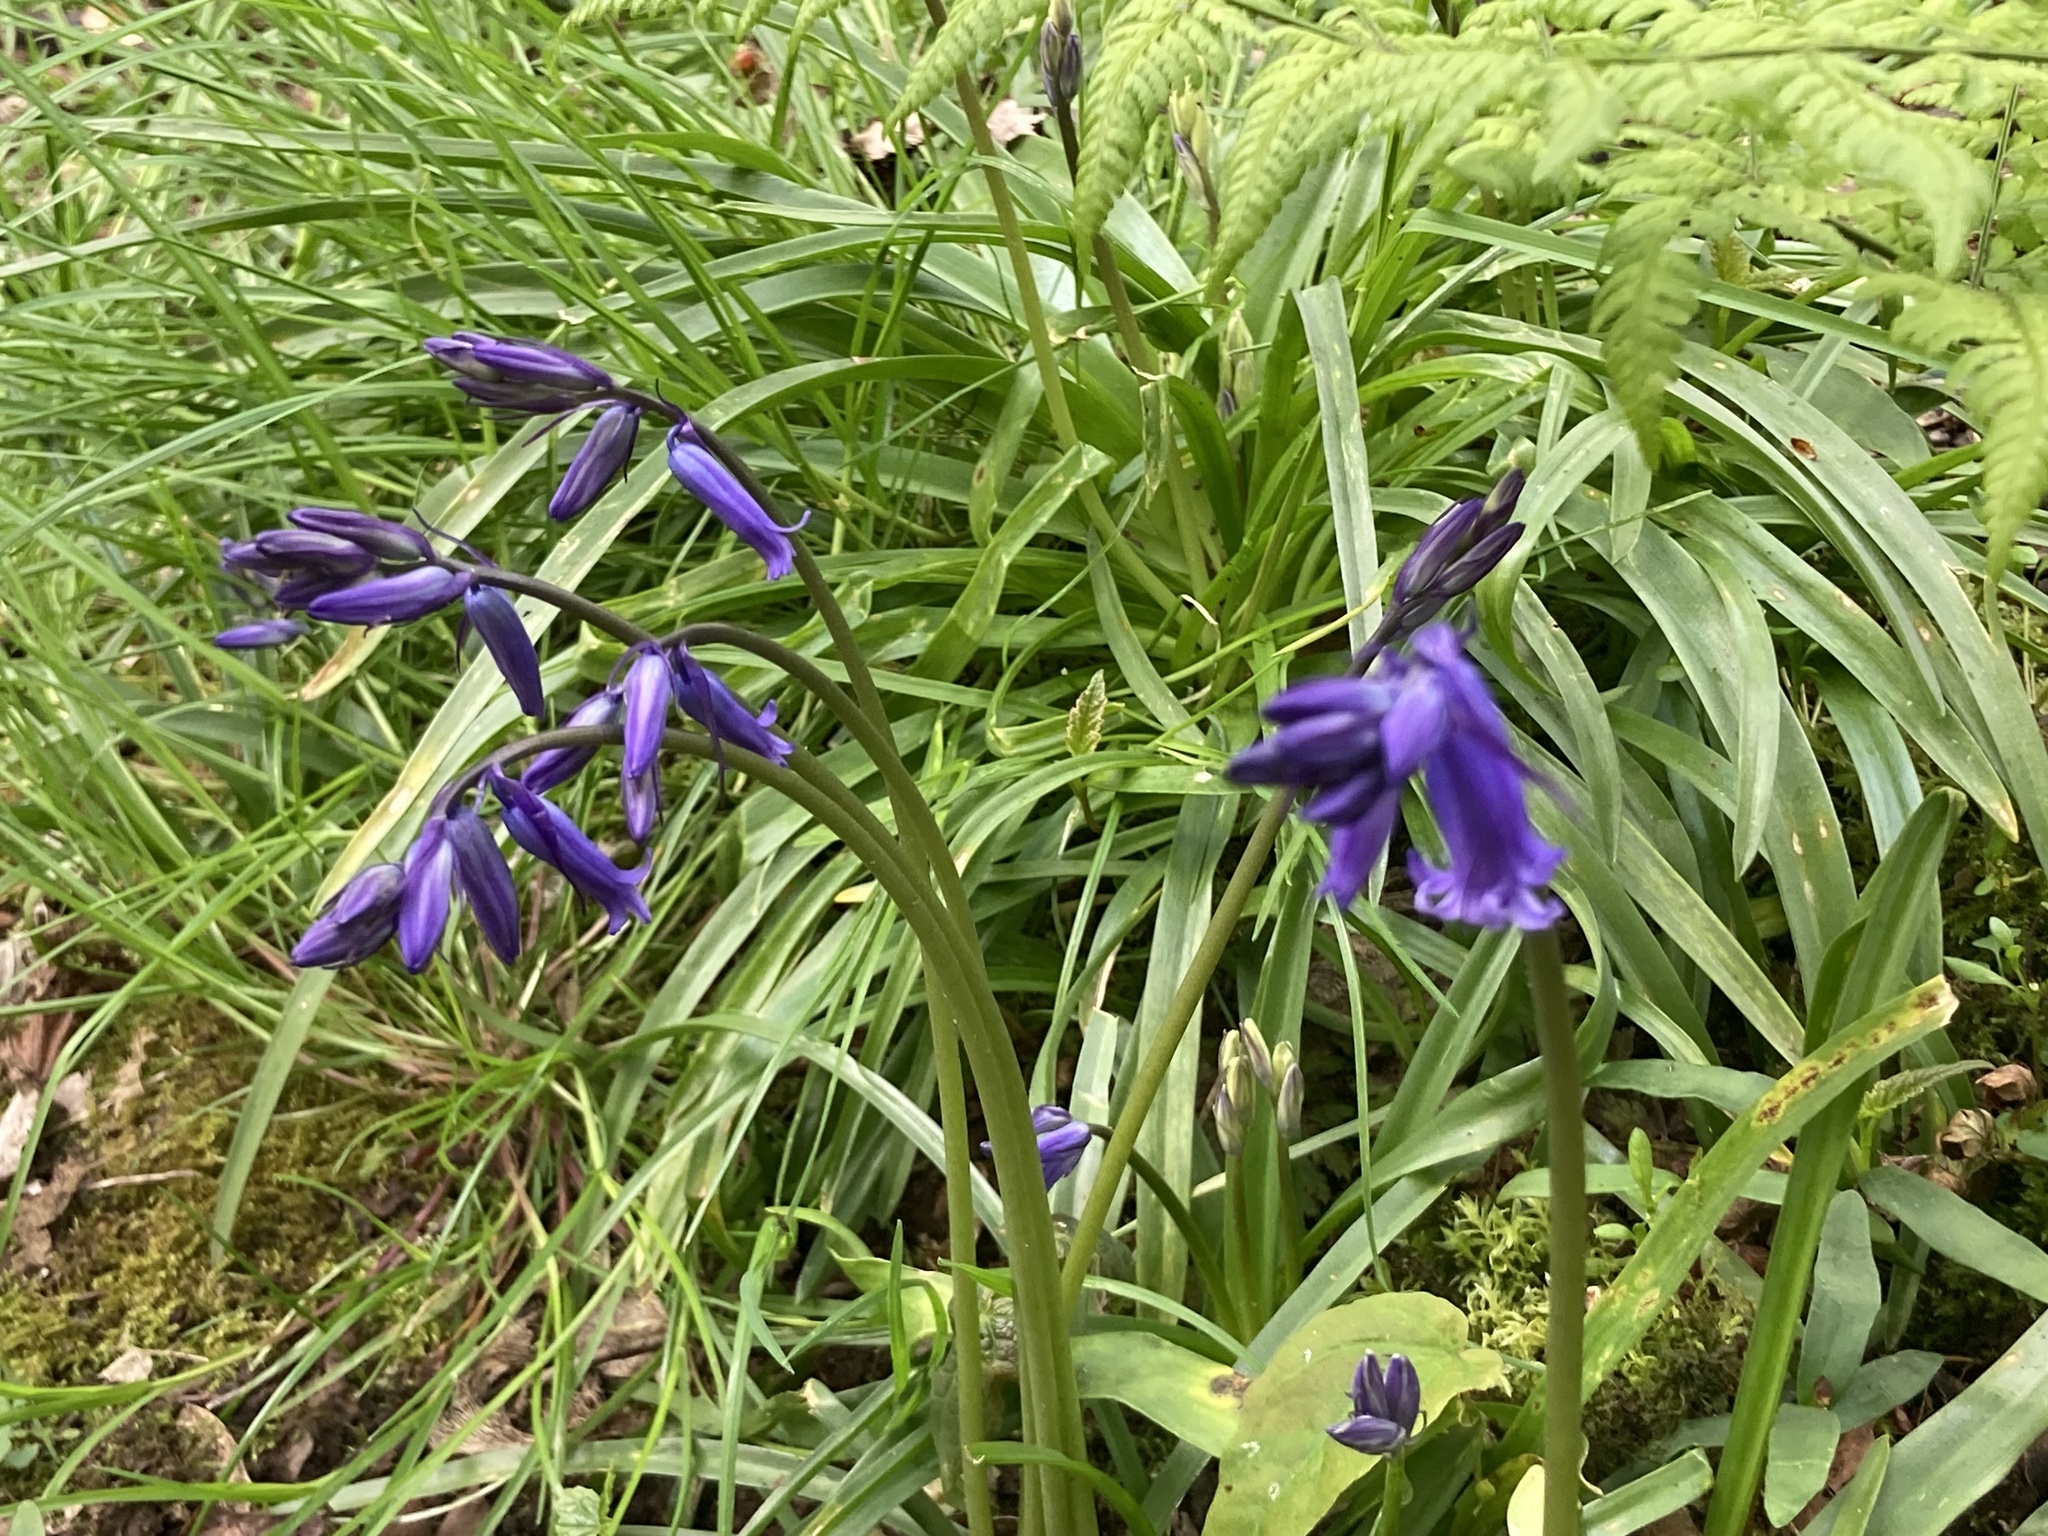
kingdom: Plantae
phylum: Tracheophyta
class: Liliopsida
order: Asparagales
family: Asparagaceae
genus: Hyacinthoides
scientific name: Hyacinthoides non-scripta
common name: Bluebell
